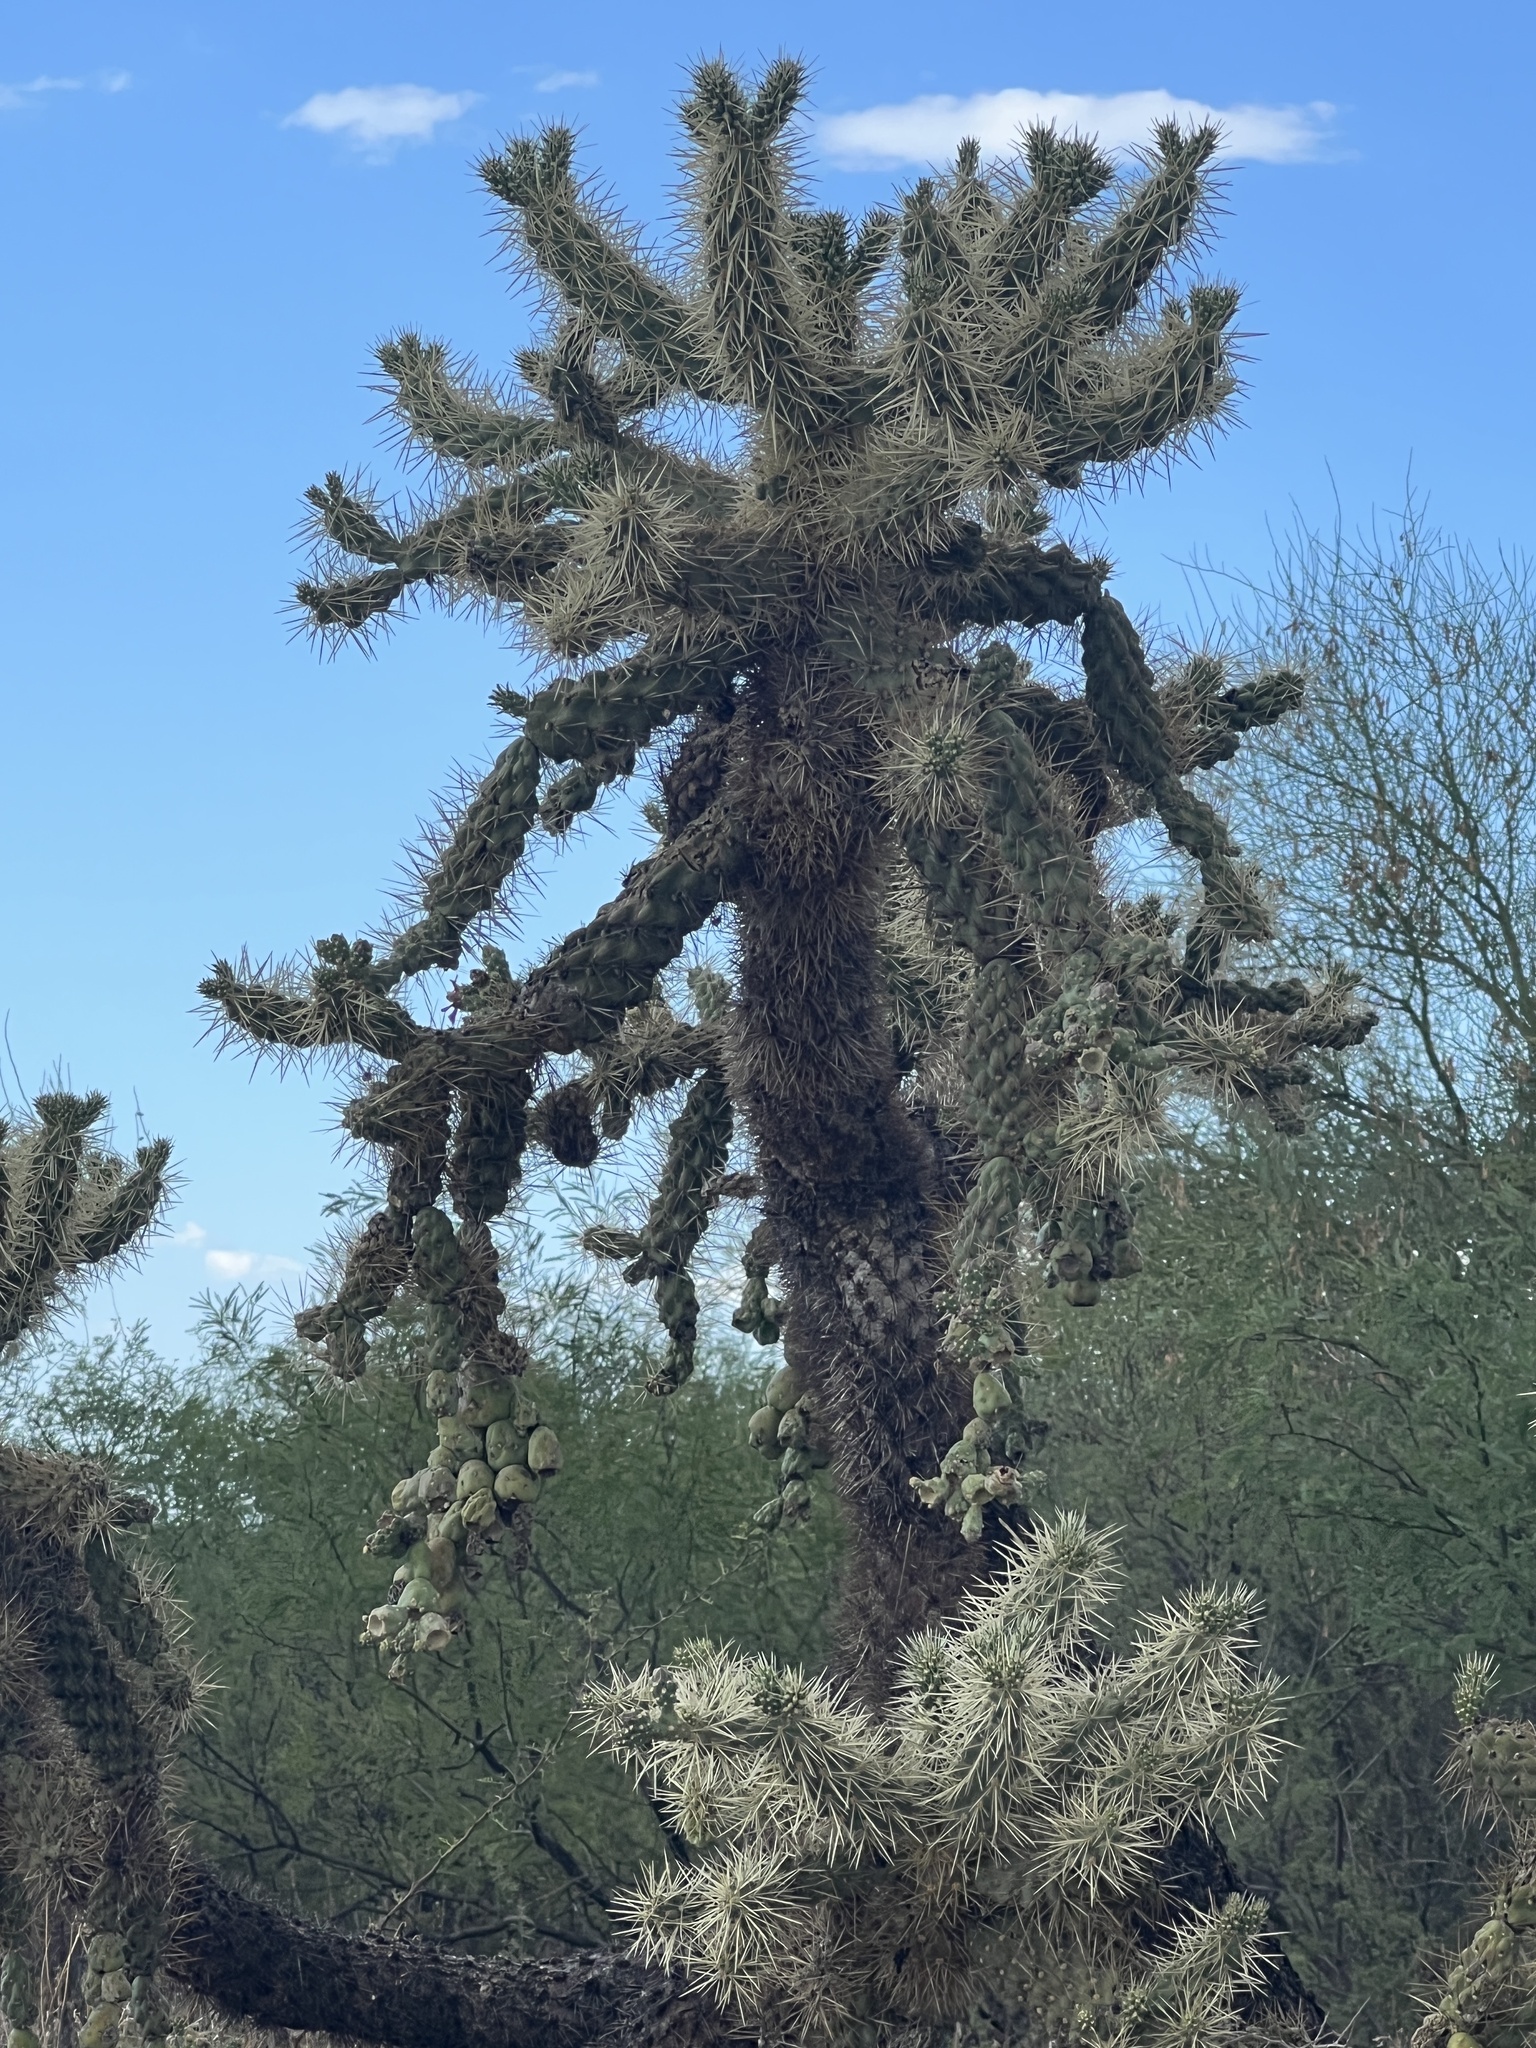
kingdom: Plantae
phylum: Tracheophyta
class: Magnoliopsida
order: Caryophyllales
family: Cactaceae
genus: Cylindropuntia
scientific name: Cylindropuntia fulgida
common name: Jumping cholla
